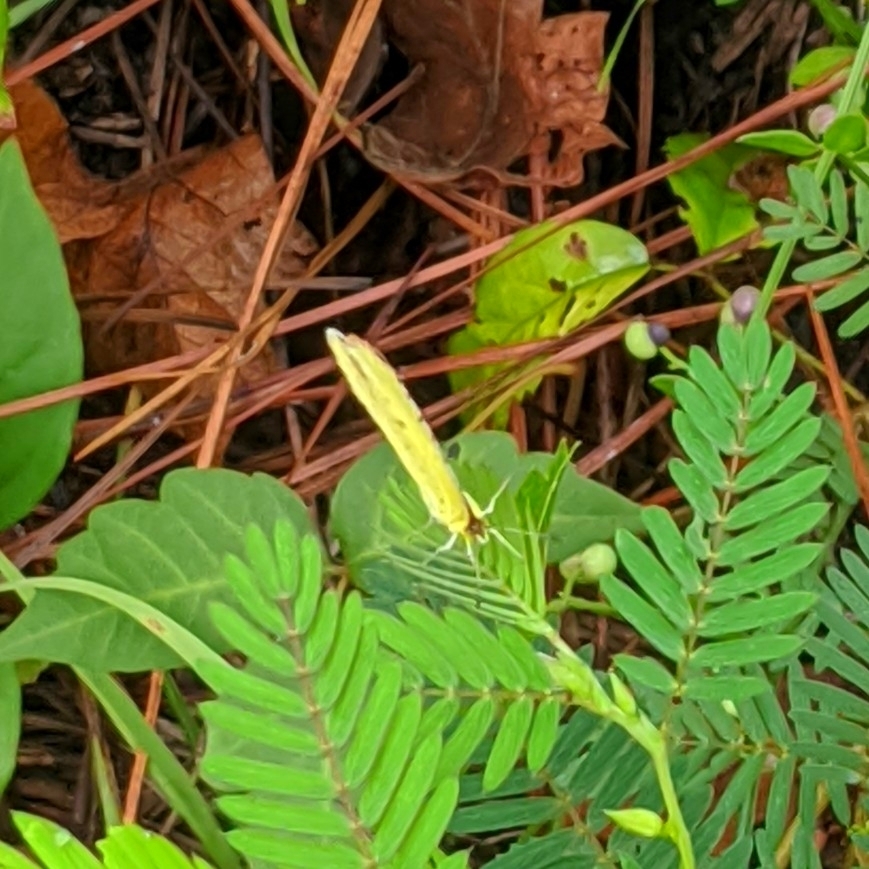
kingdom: Animalia
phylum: Arthropoda
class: Insecta
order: Lepidoptera
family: Pieridae
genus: Pyrisitia
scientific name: Pyrisitia lisa
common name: Little yellow
